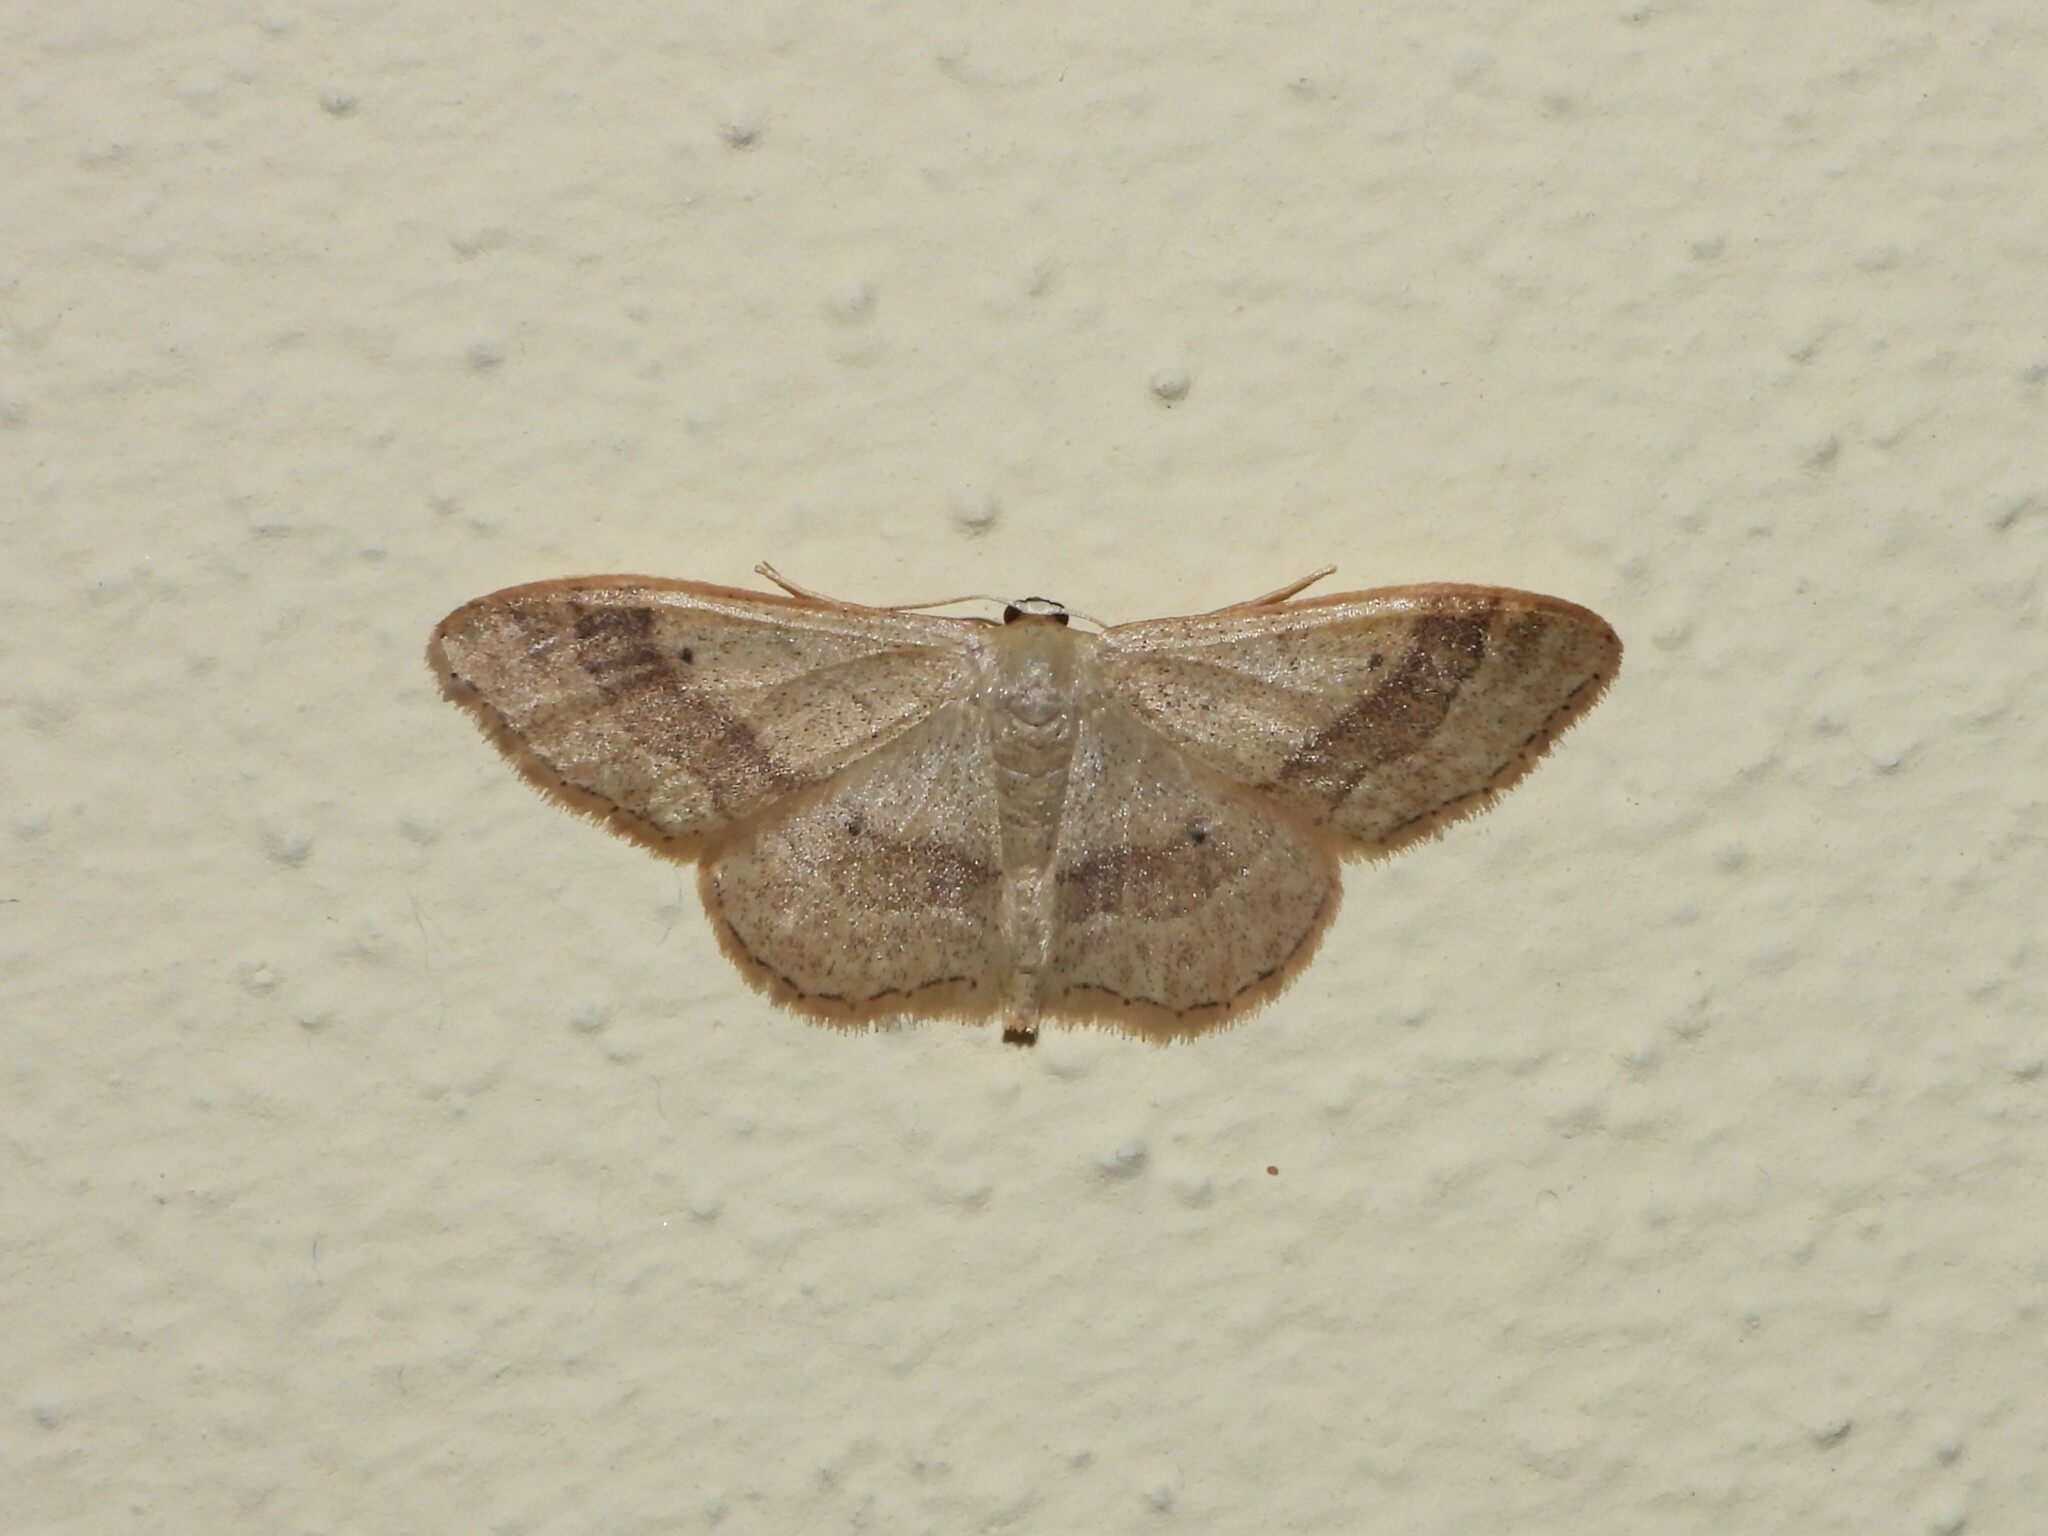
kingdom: Animalia
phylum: Arthropoda
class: Insecta
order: Lepidoptera
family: Geometridae
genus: Idaea
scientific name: Idaea aversata
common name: Riband wave
